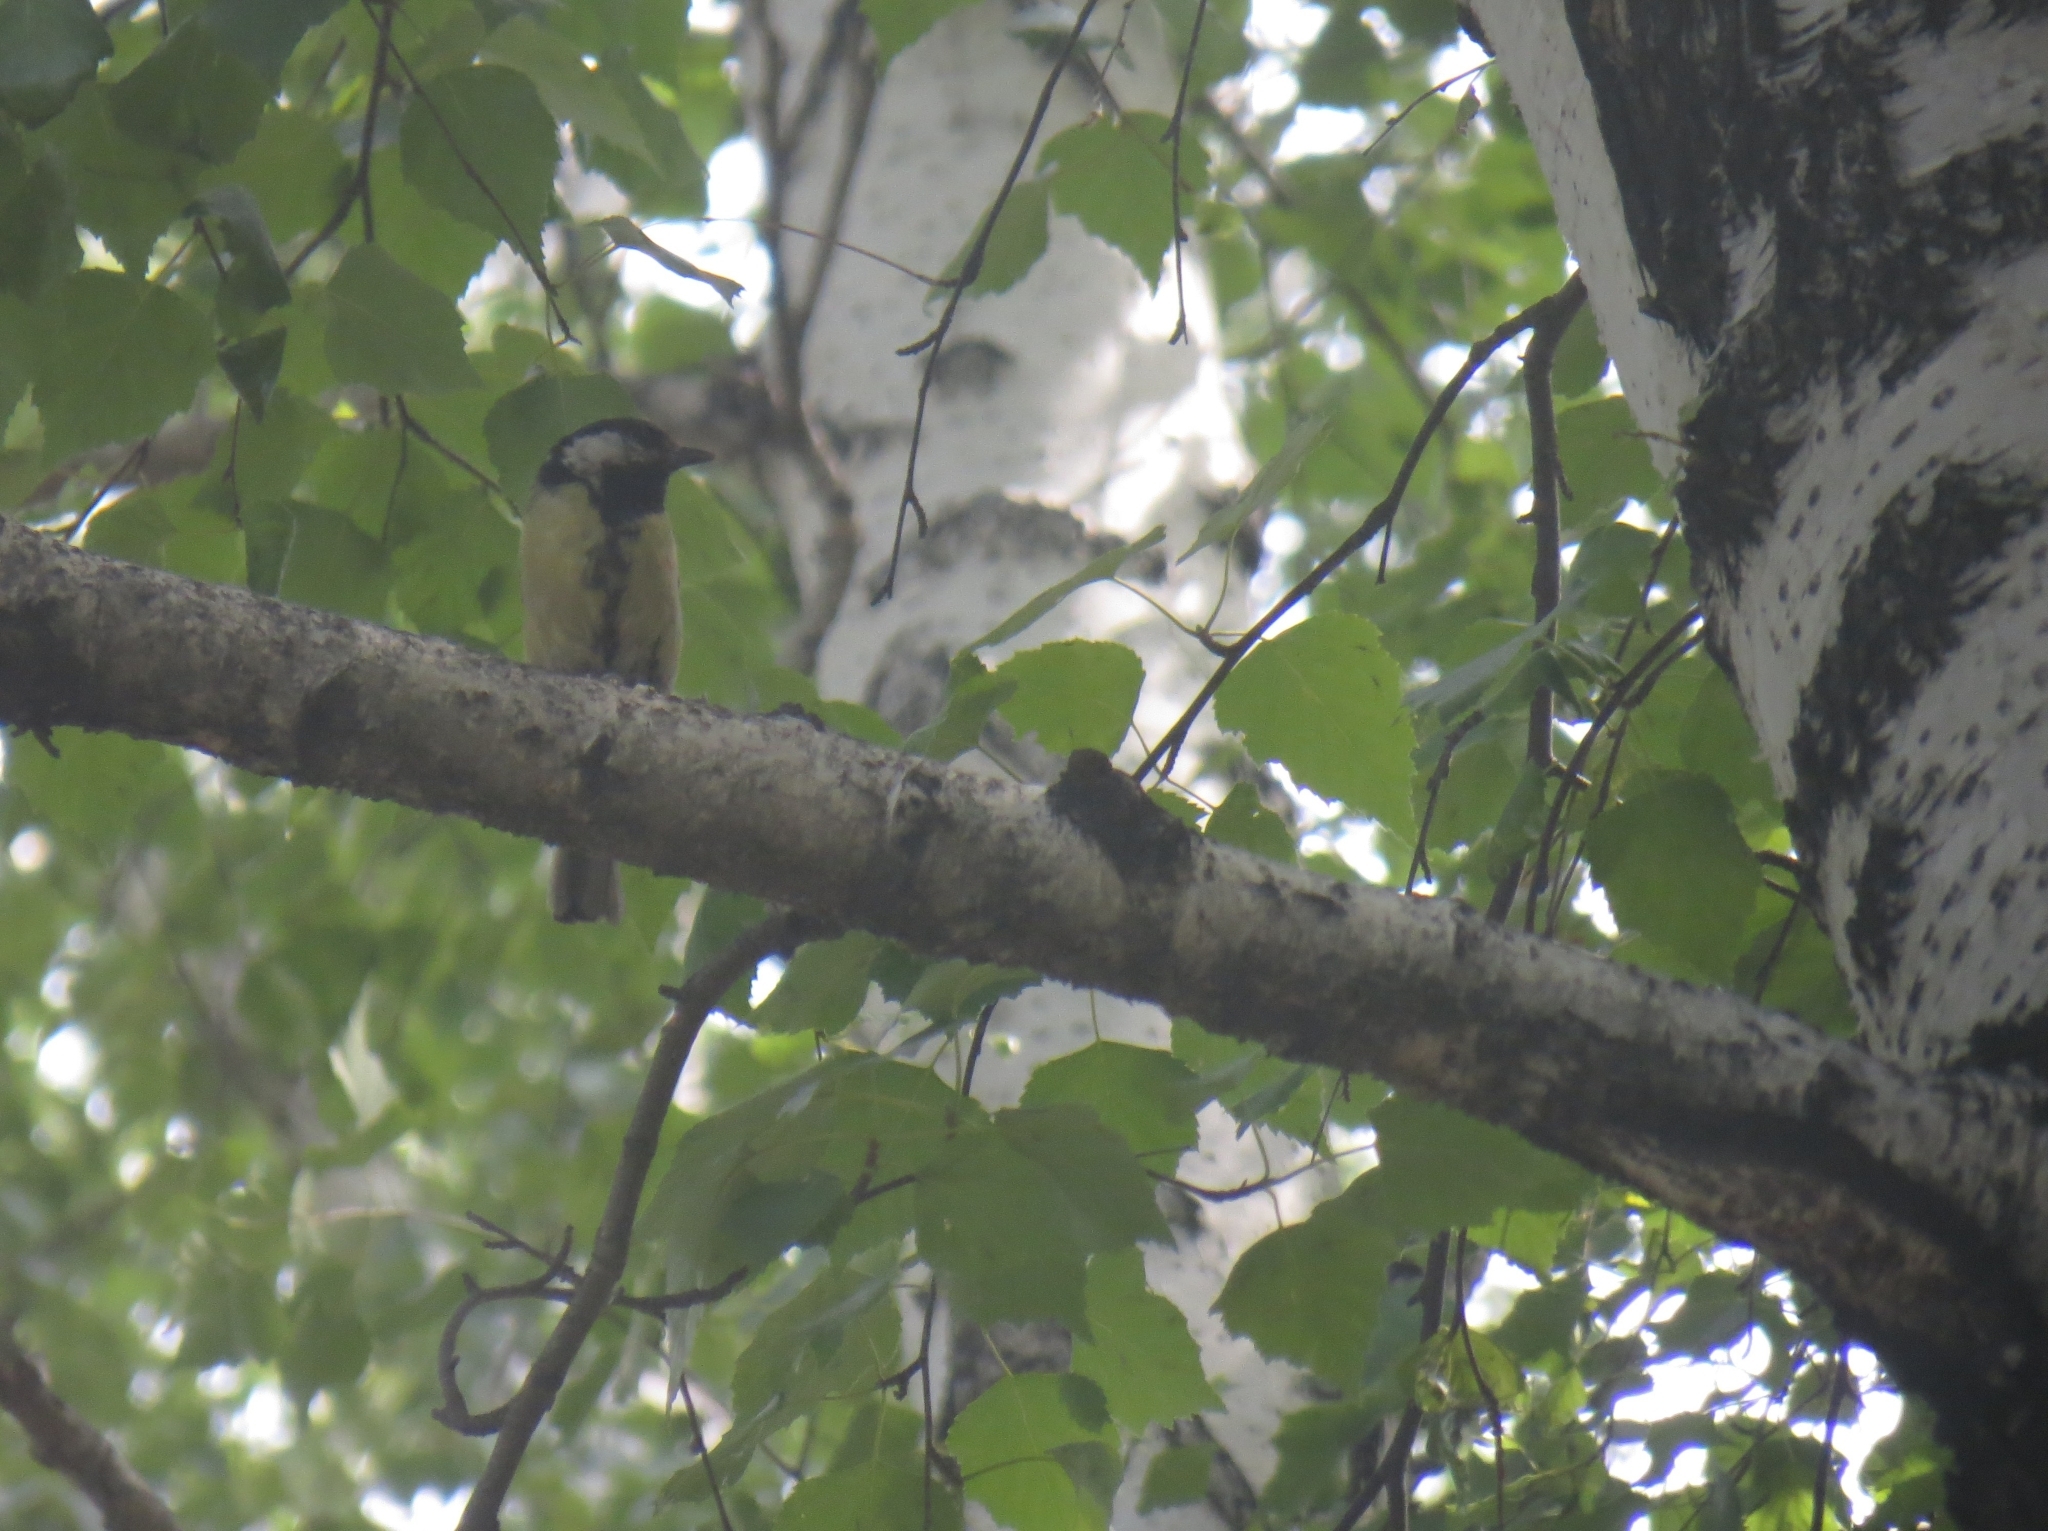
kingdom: Animalia
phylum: Chordata
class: Aves
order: Passeriformes
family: Paridae
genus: Parus
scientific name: Parus major
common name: Great tit
